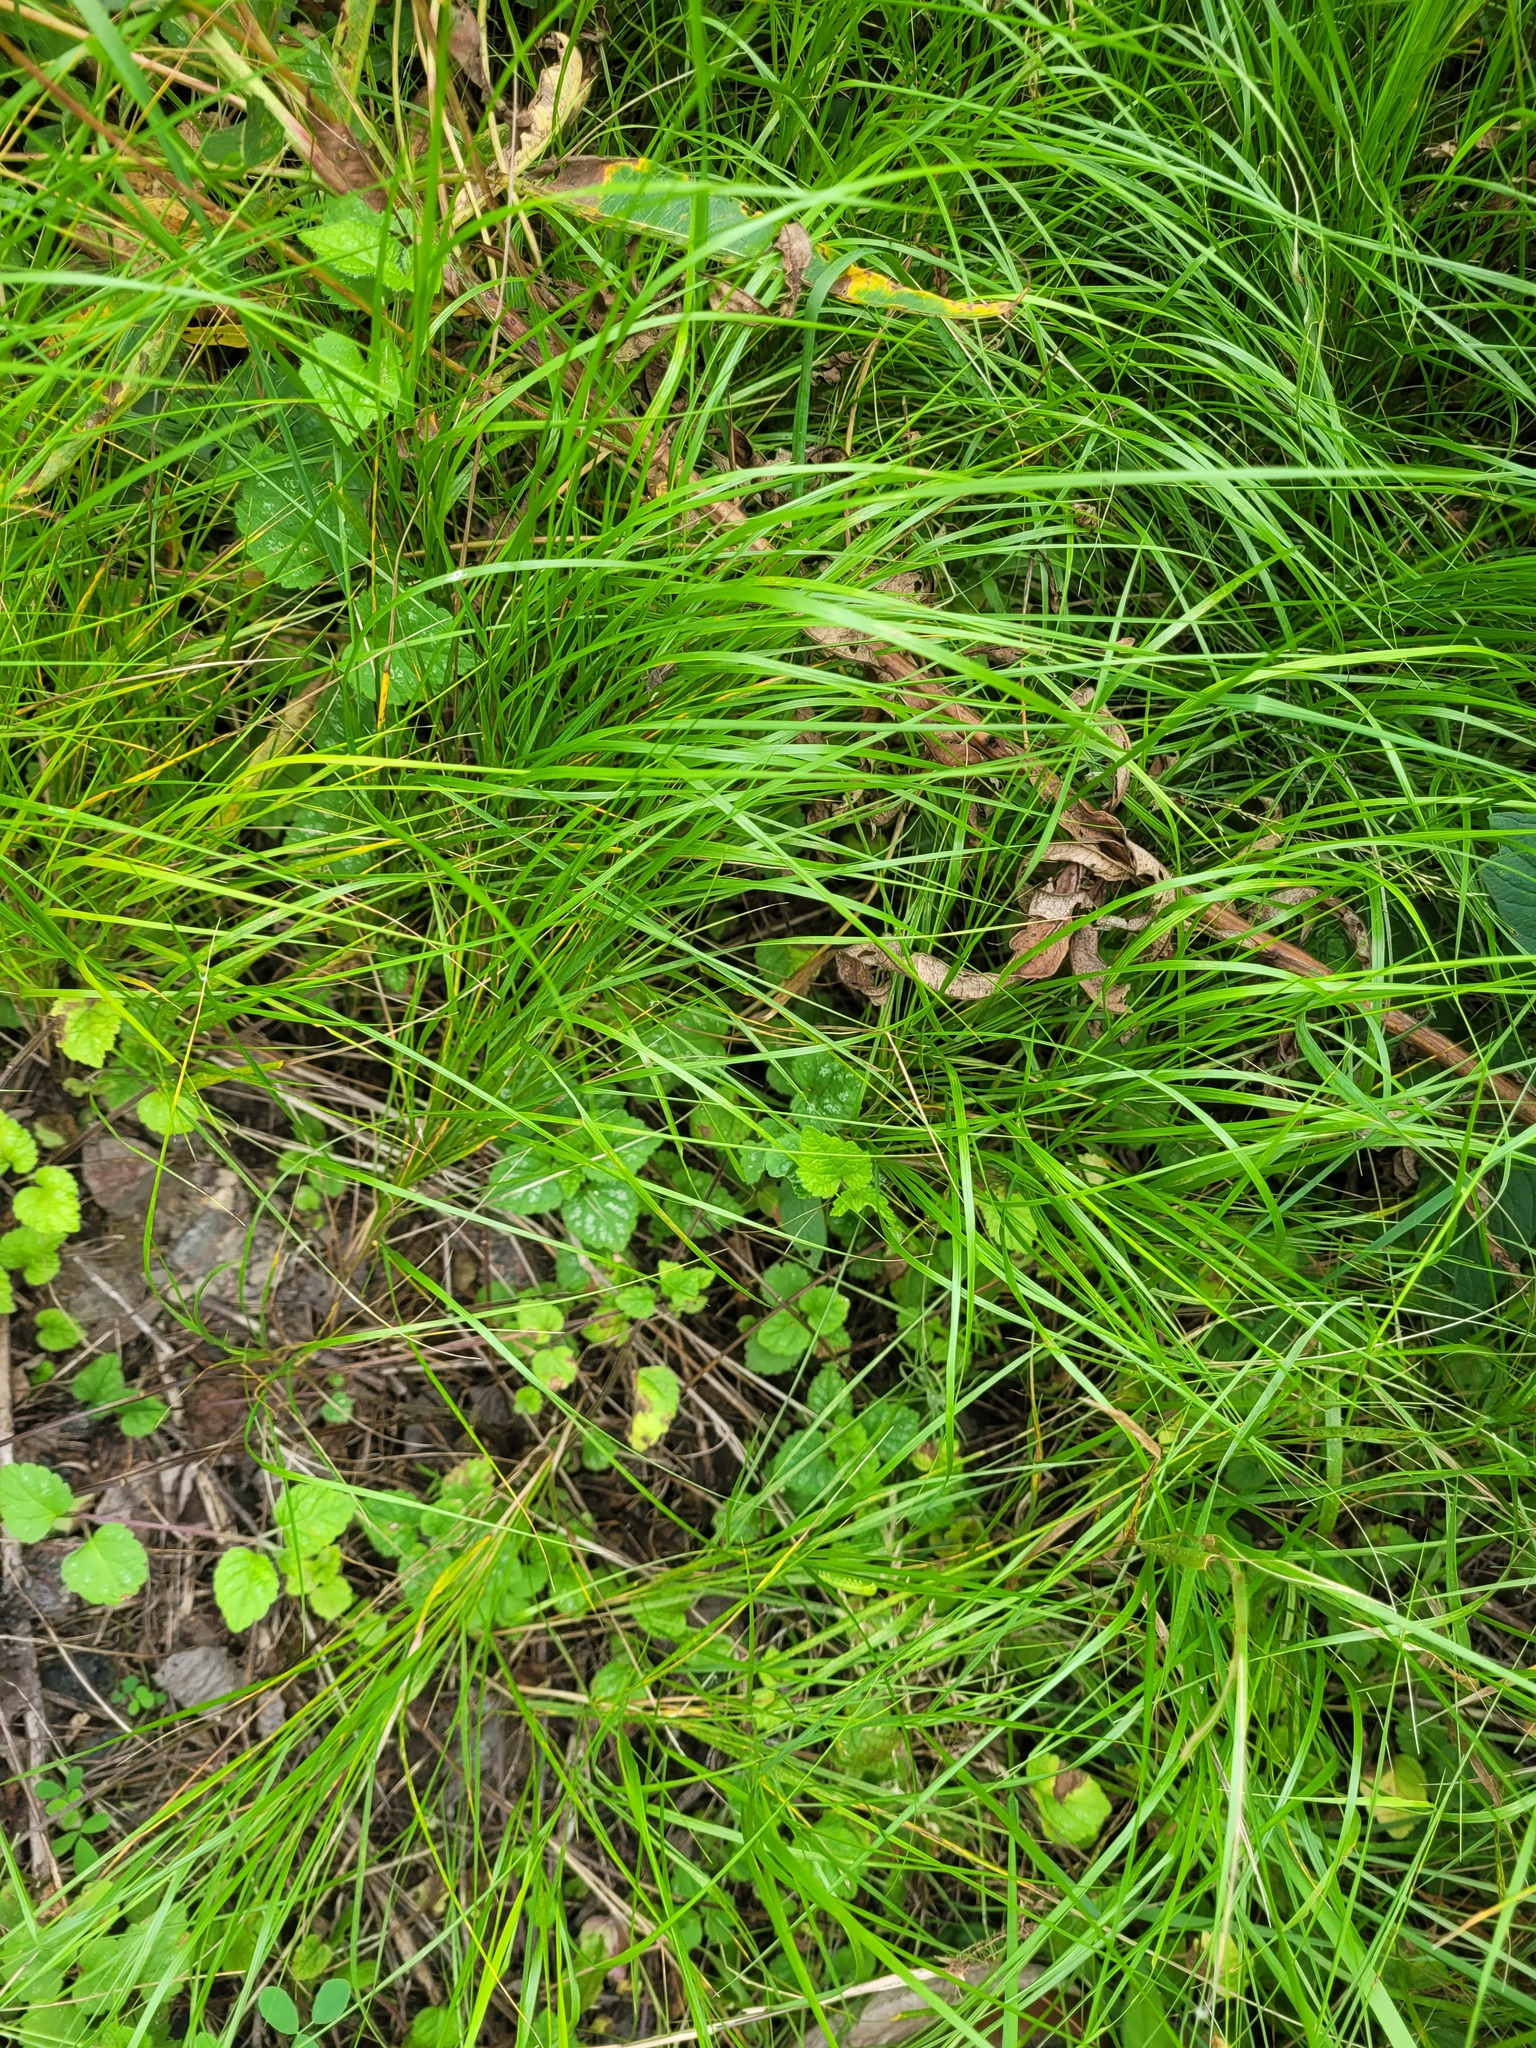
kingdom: Plantae
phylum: Tracheophyta
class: Magnoliopsida
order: Lamiales
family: Lamiaceae
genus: Lamium
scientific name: Lamium galeobdolon
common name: Yellow archangel
